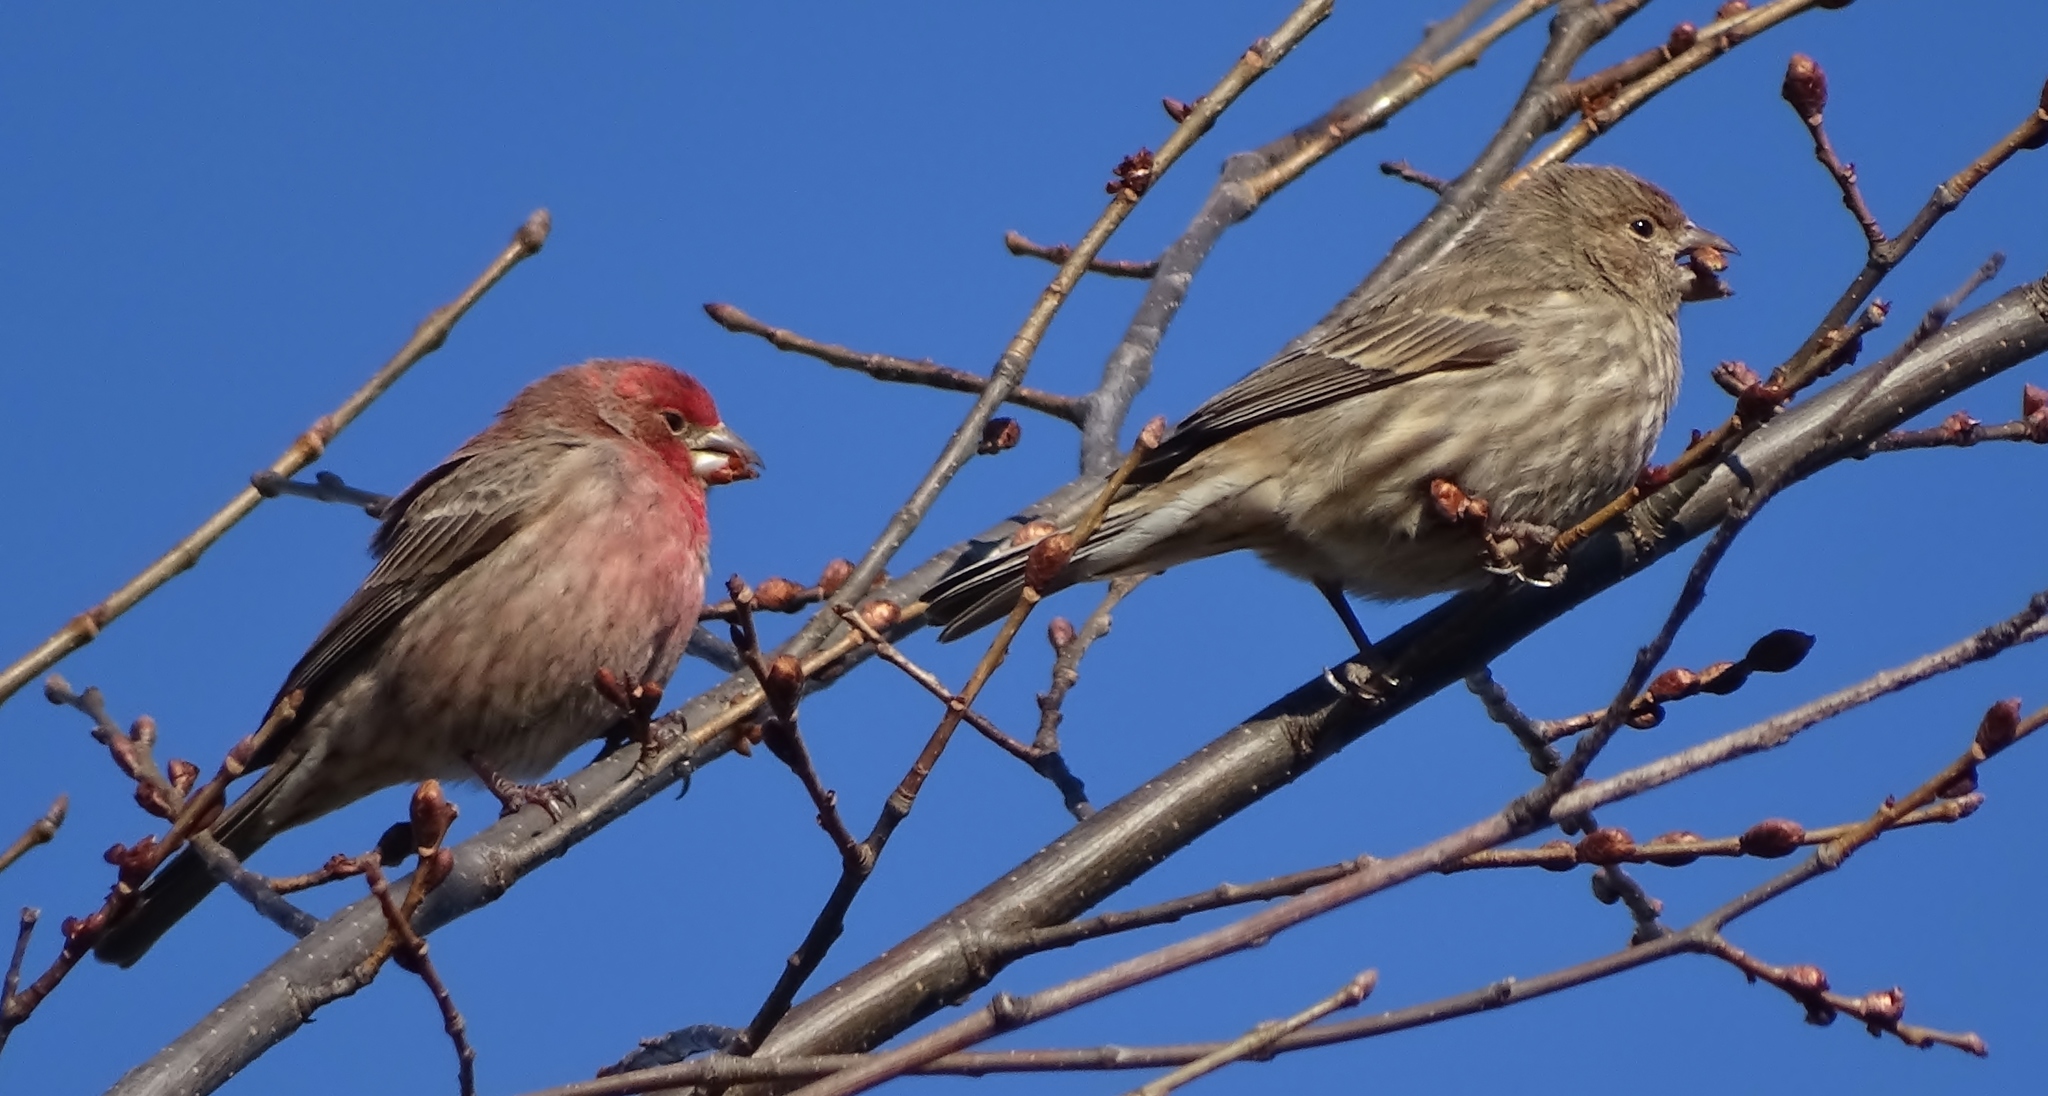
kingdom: Animalia
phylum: Chordata
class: Aves
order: Passeriformes
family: Fringillidae
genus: Haemorhous
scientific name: Haemorhous mexicanus
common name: House finch
